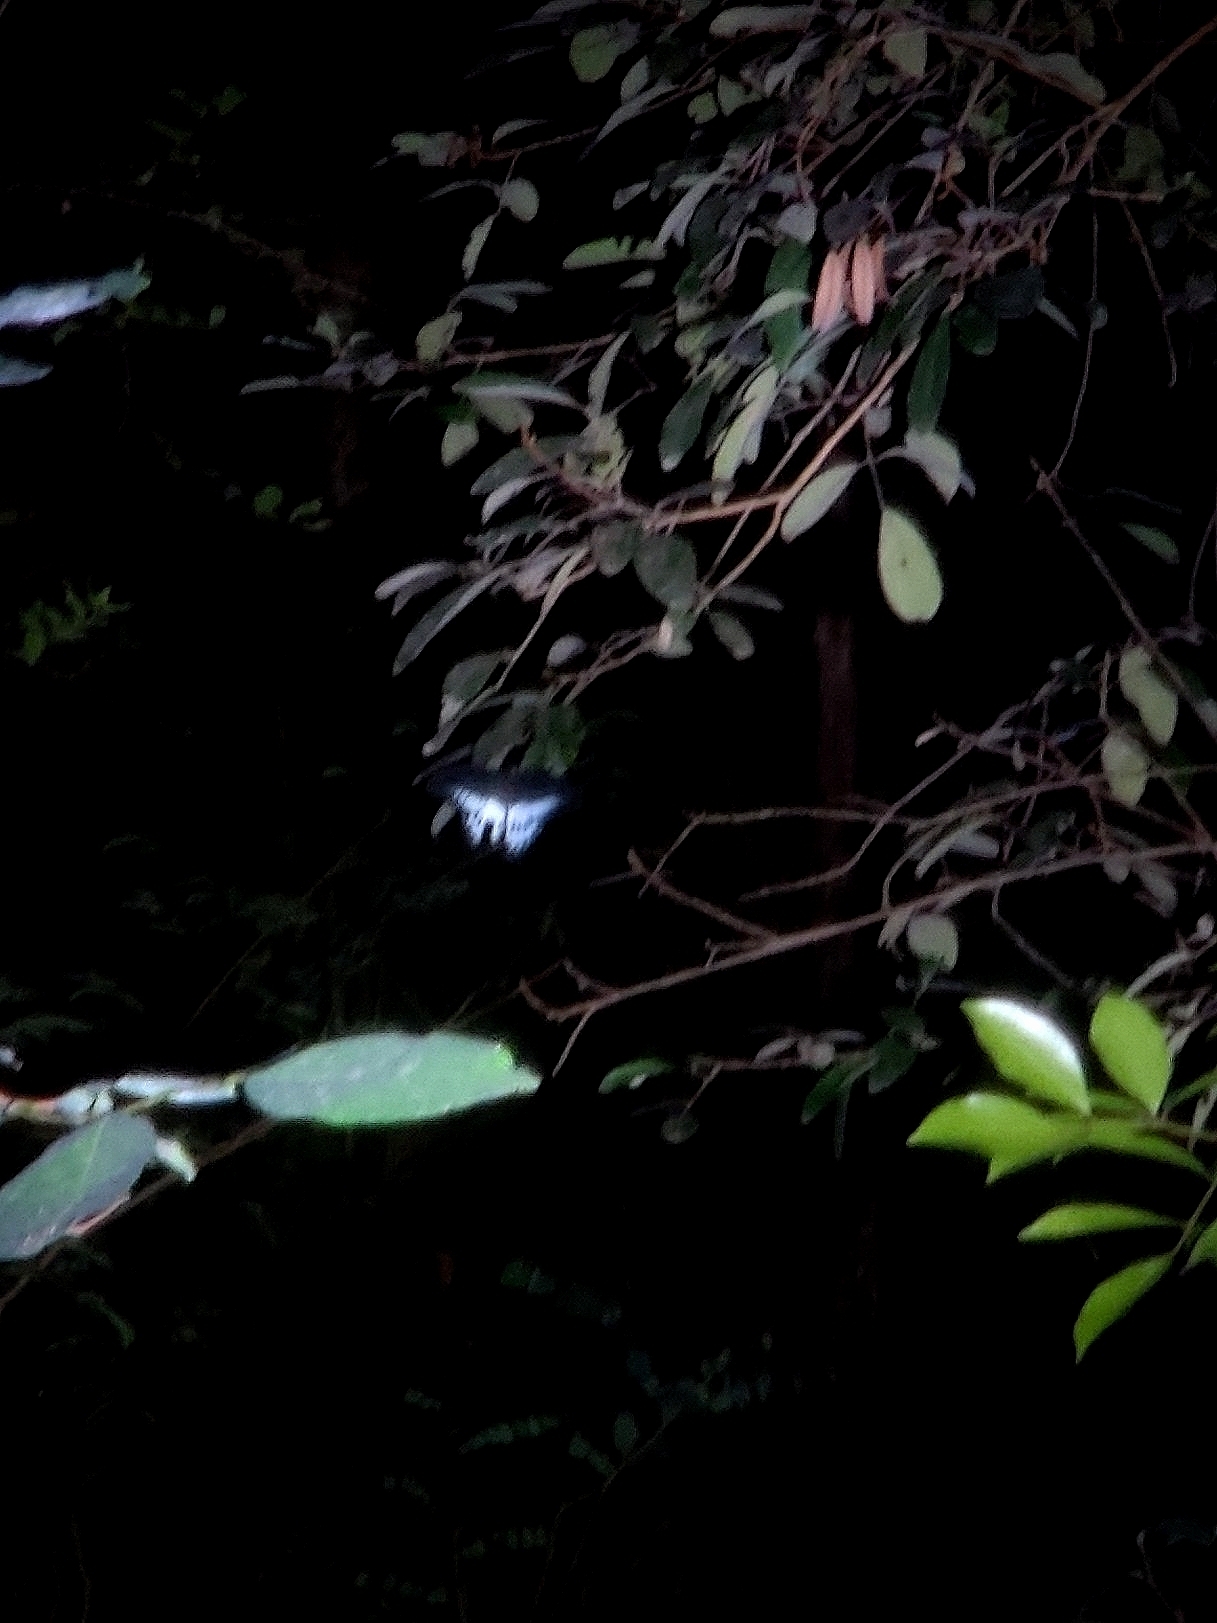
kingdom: Animalia
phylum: Arthropoda
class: Insecta
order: Lepidoptera
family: Papilionidae
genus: Papilio
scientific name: Papilio memnon
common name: Great mormon
